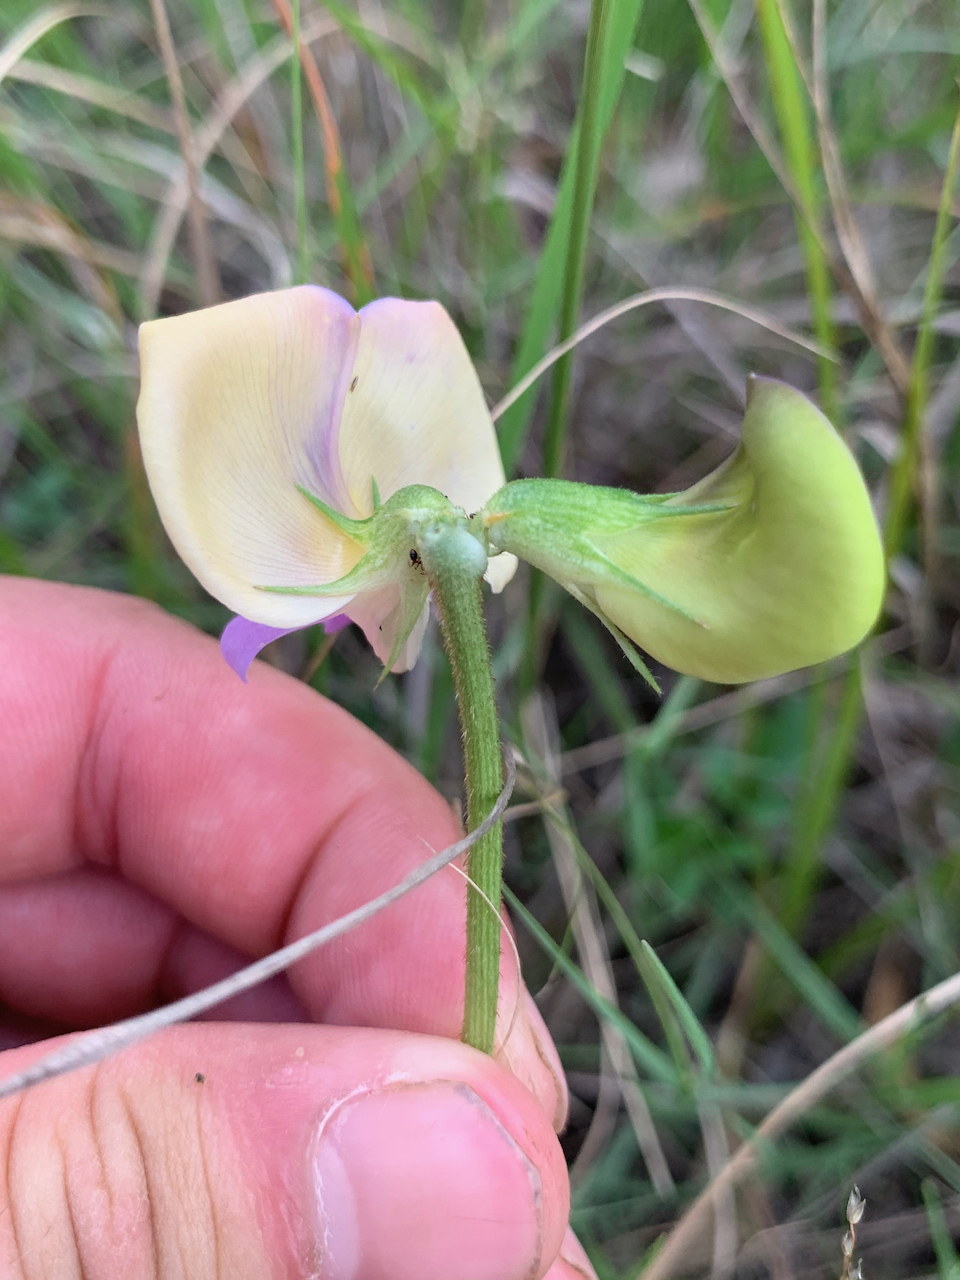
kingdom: Plantae
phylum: Tracheophyta
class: Magnoliopsida
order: Fabales
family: Fabaceae
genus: Sphenostylis
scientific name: Sphenostylis angustifolia
